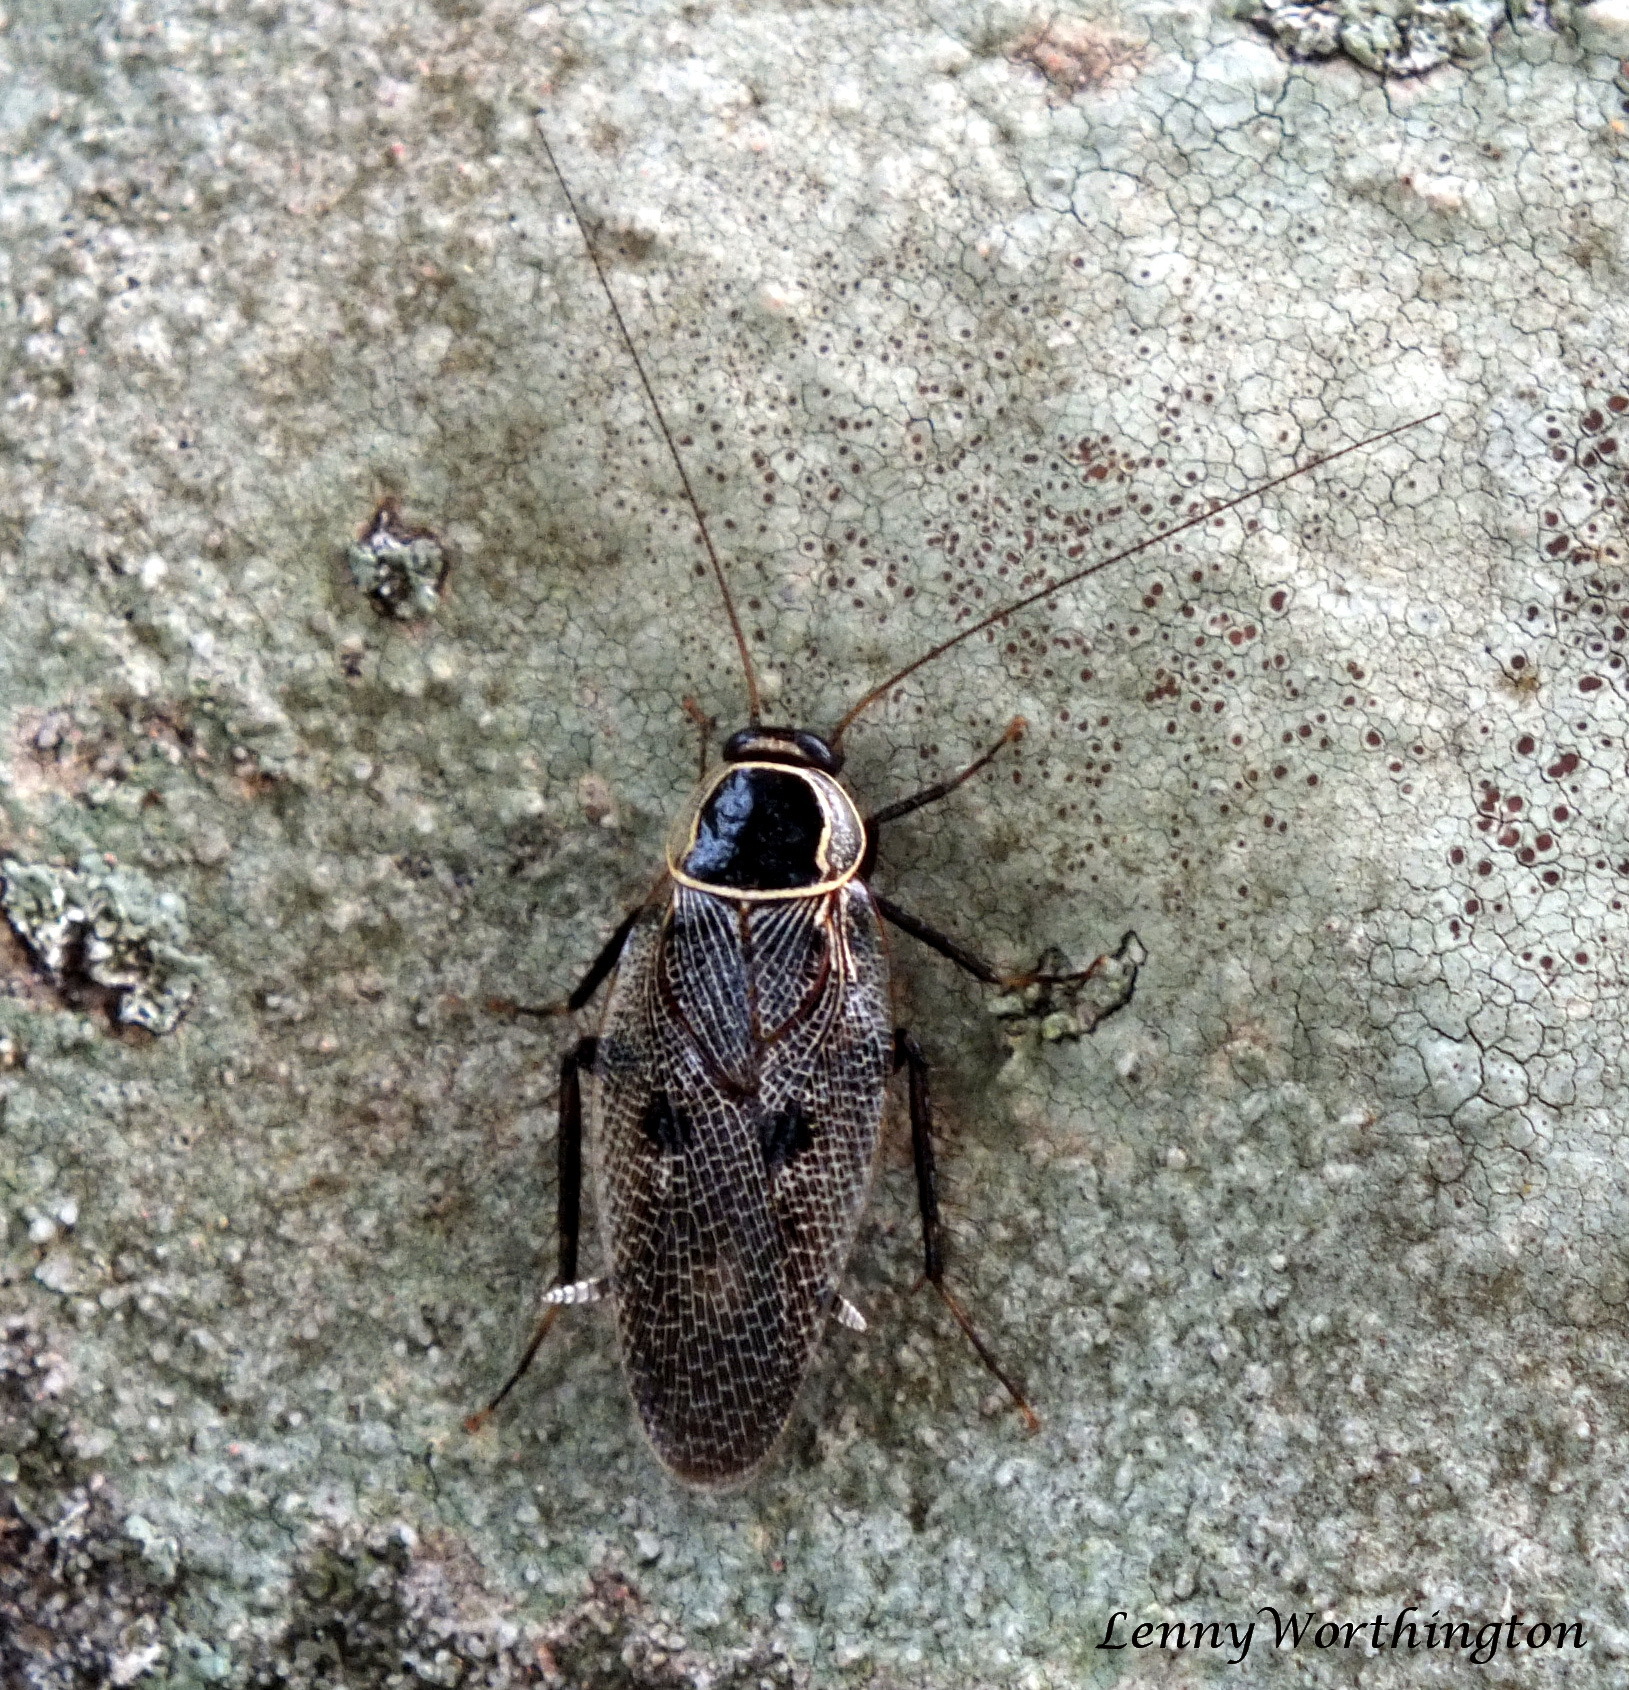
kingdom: Animalia
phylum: Arthropoda
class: Insecta
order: Blattodea
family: Ectobiidae
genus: Allacta
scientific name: Allacta bimaculata
